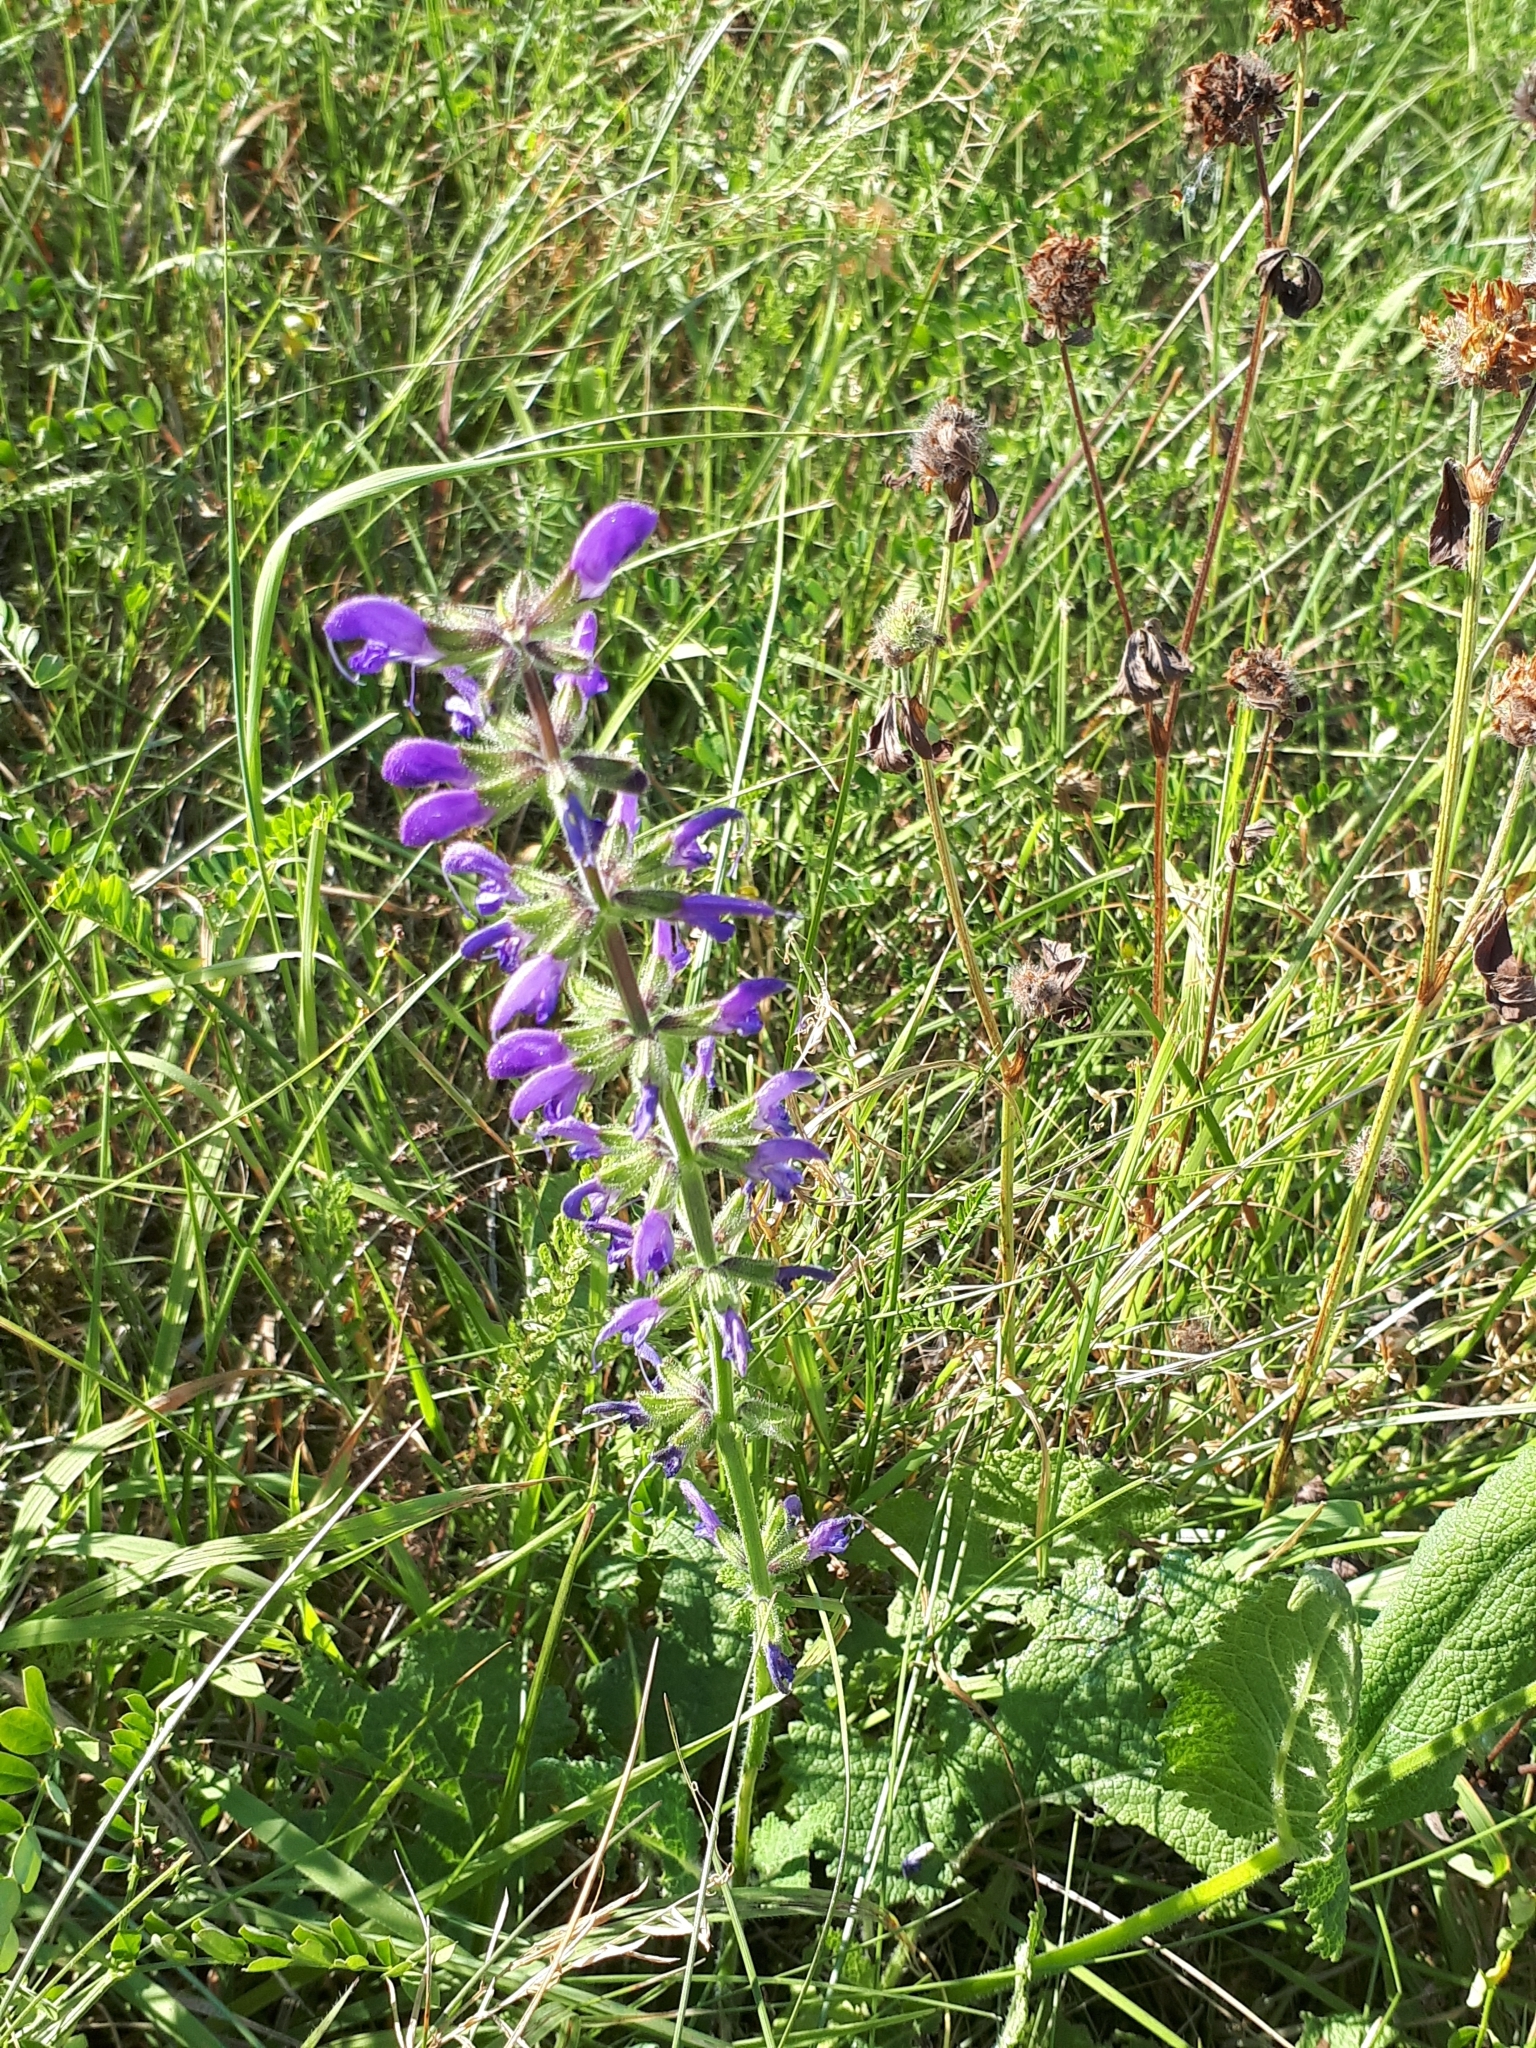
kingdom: Plantae
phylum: Tracheophyta
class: Magnoliopsida
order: Lamiales
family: Lamiaceae
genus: Salvia
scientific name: Salvia pratensis
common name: Meadow sage
